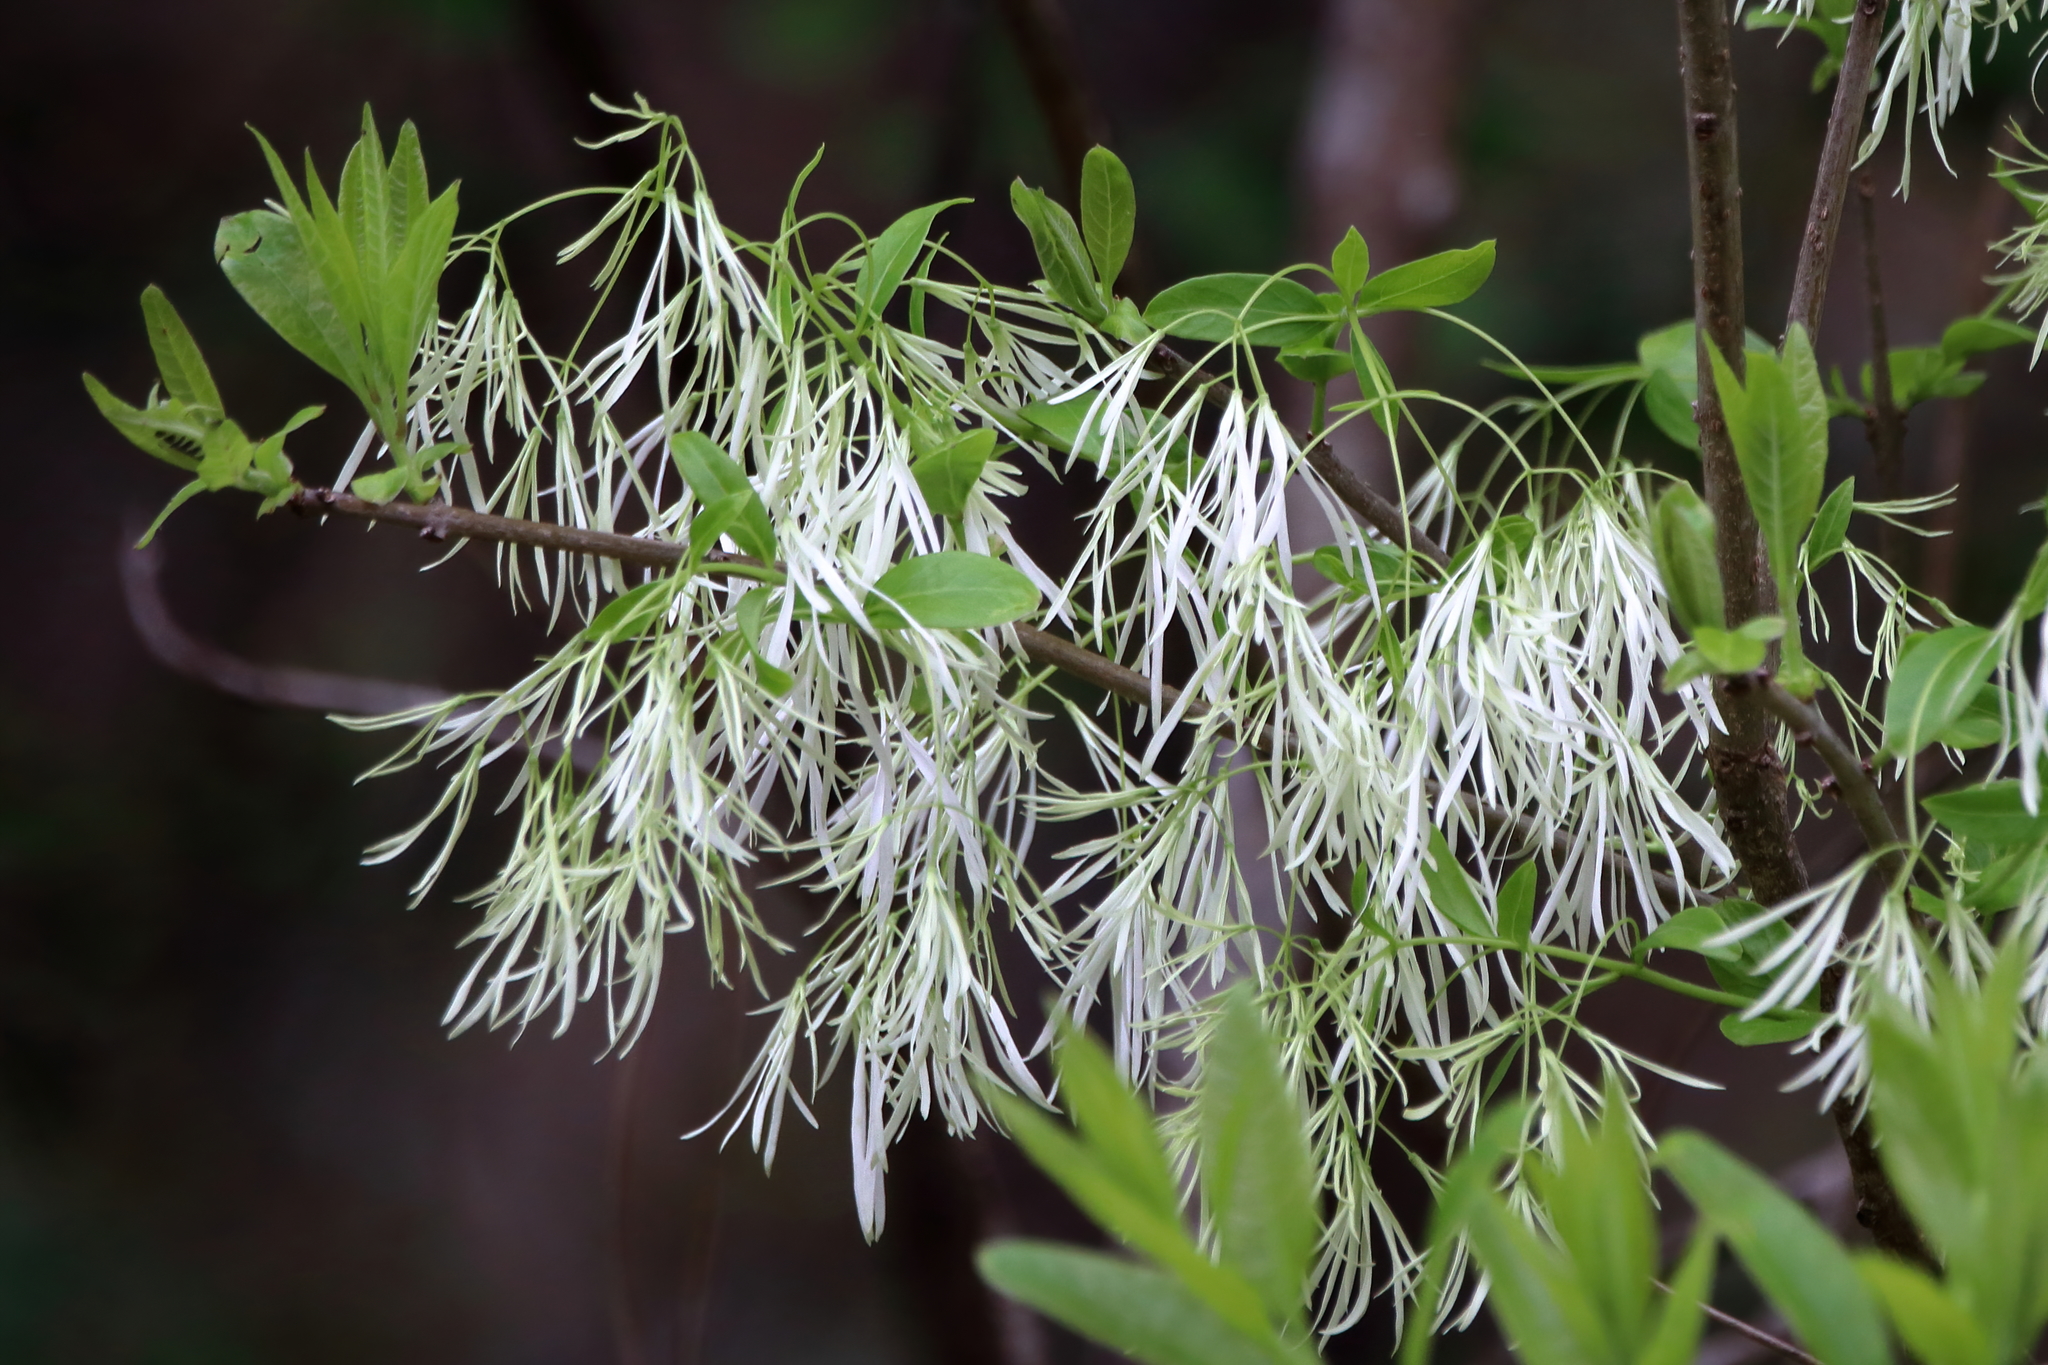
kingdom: Plantae
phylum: Tracheophyta
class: Magnoliopsida
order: Lamiales
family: Oleaceae
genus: Chionanthus
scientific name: Chionanthus virginicus
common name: American fringetree
